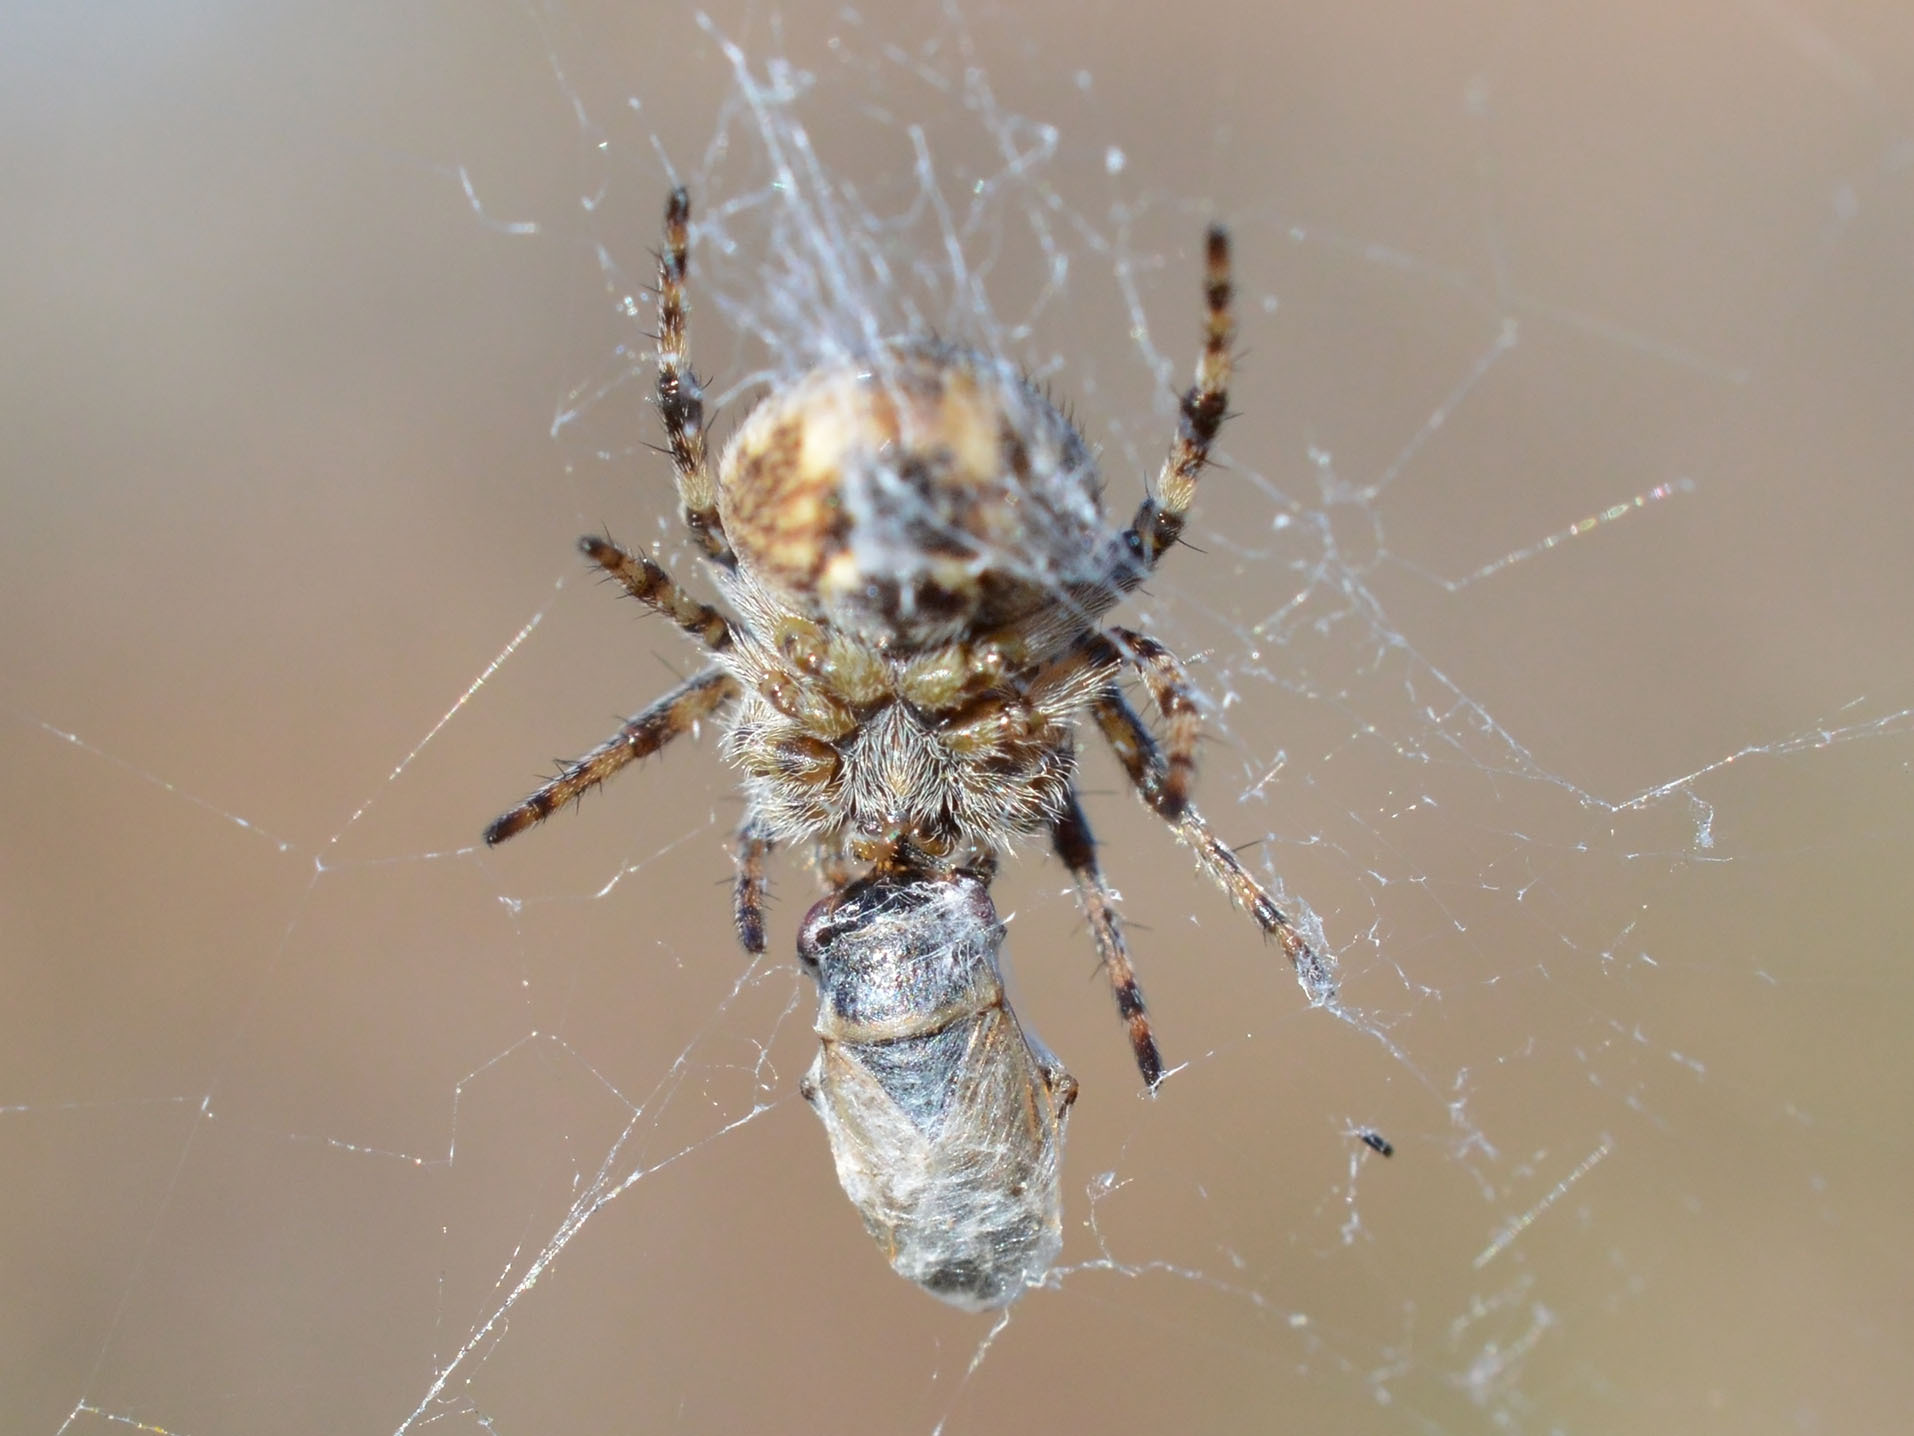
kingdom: Animalia
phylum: Arthropoda
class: Arachnida
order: Araneae
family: Araneidae
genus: Agalenatea
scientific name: Agalenatea redii
